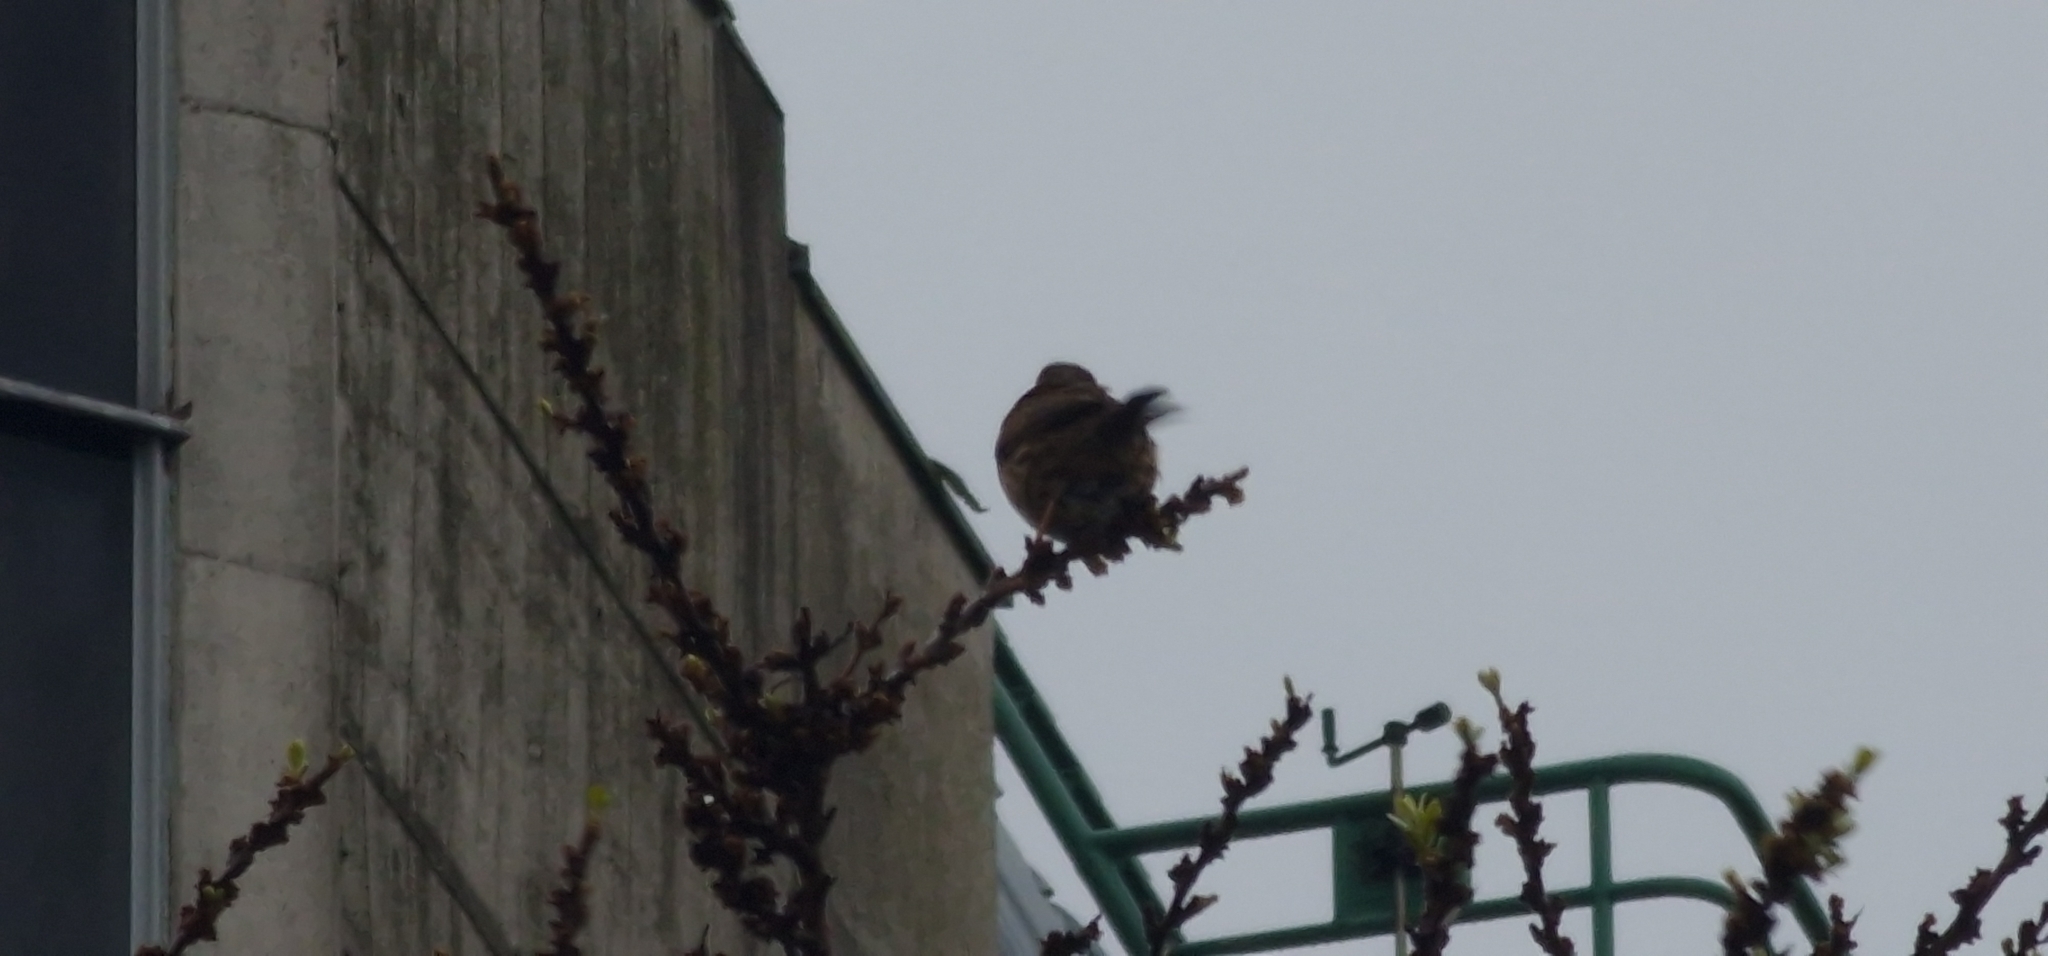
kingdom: Animalia
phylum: Chordata
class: Aves
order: Passeriformes
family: Prunellidae
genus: Prunella
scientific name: Prunella modularis
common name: Dunnock
